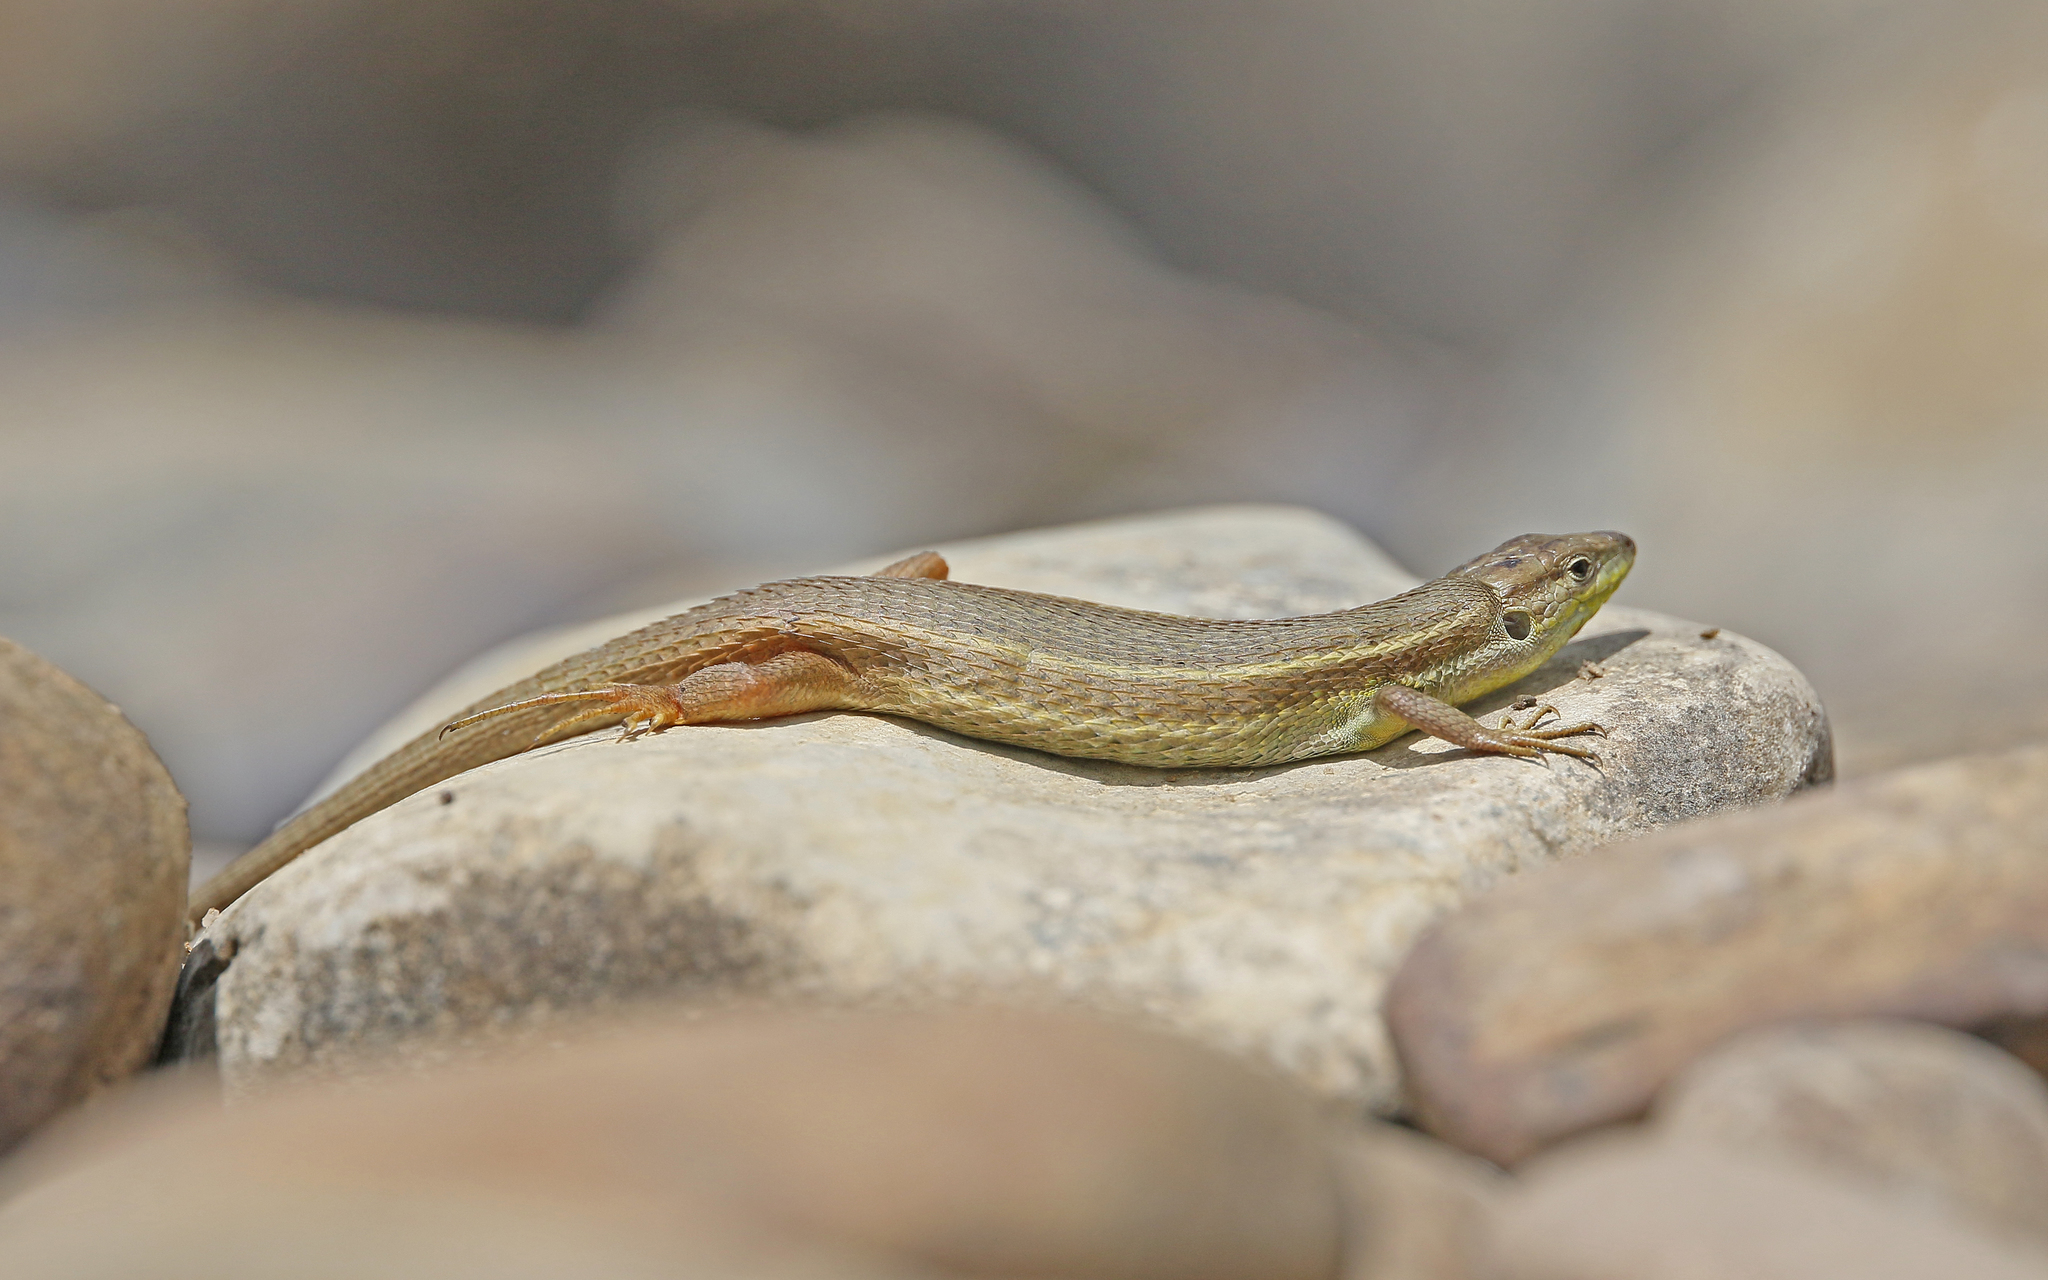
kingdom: Animalia
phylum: Chordata
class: Squamata
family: Lacertidae
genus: Psammodromus
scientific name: Psammodromus algirus
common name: Algerian psammodromus
